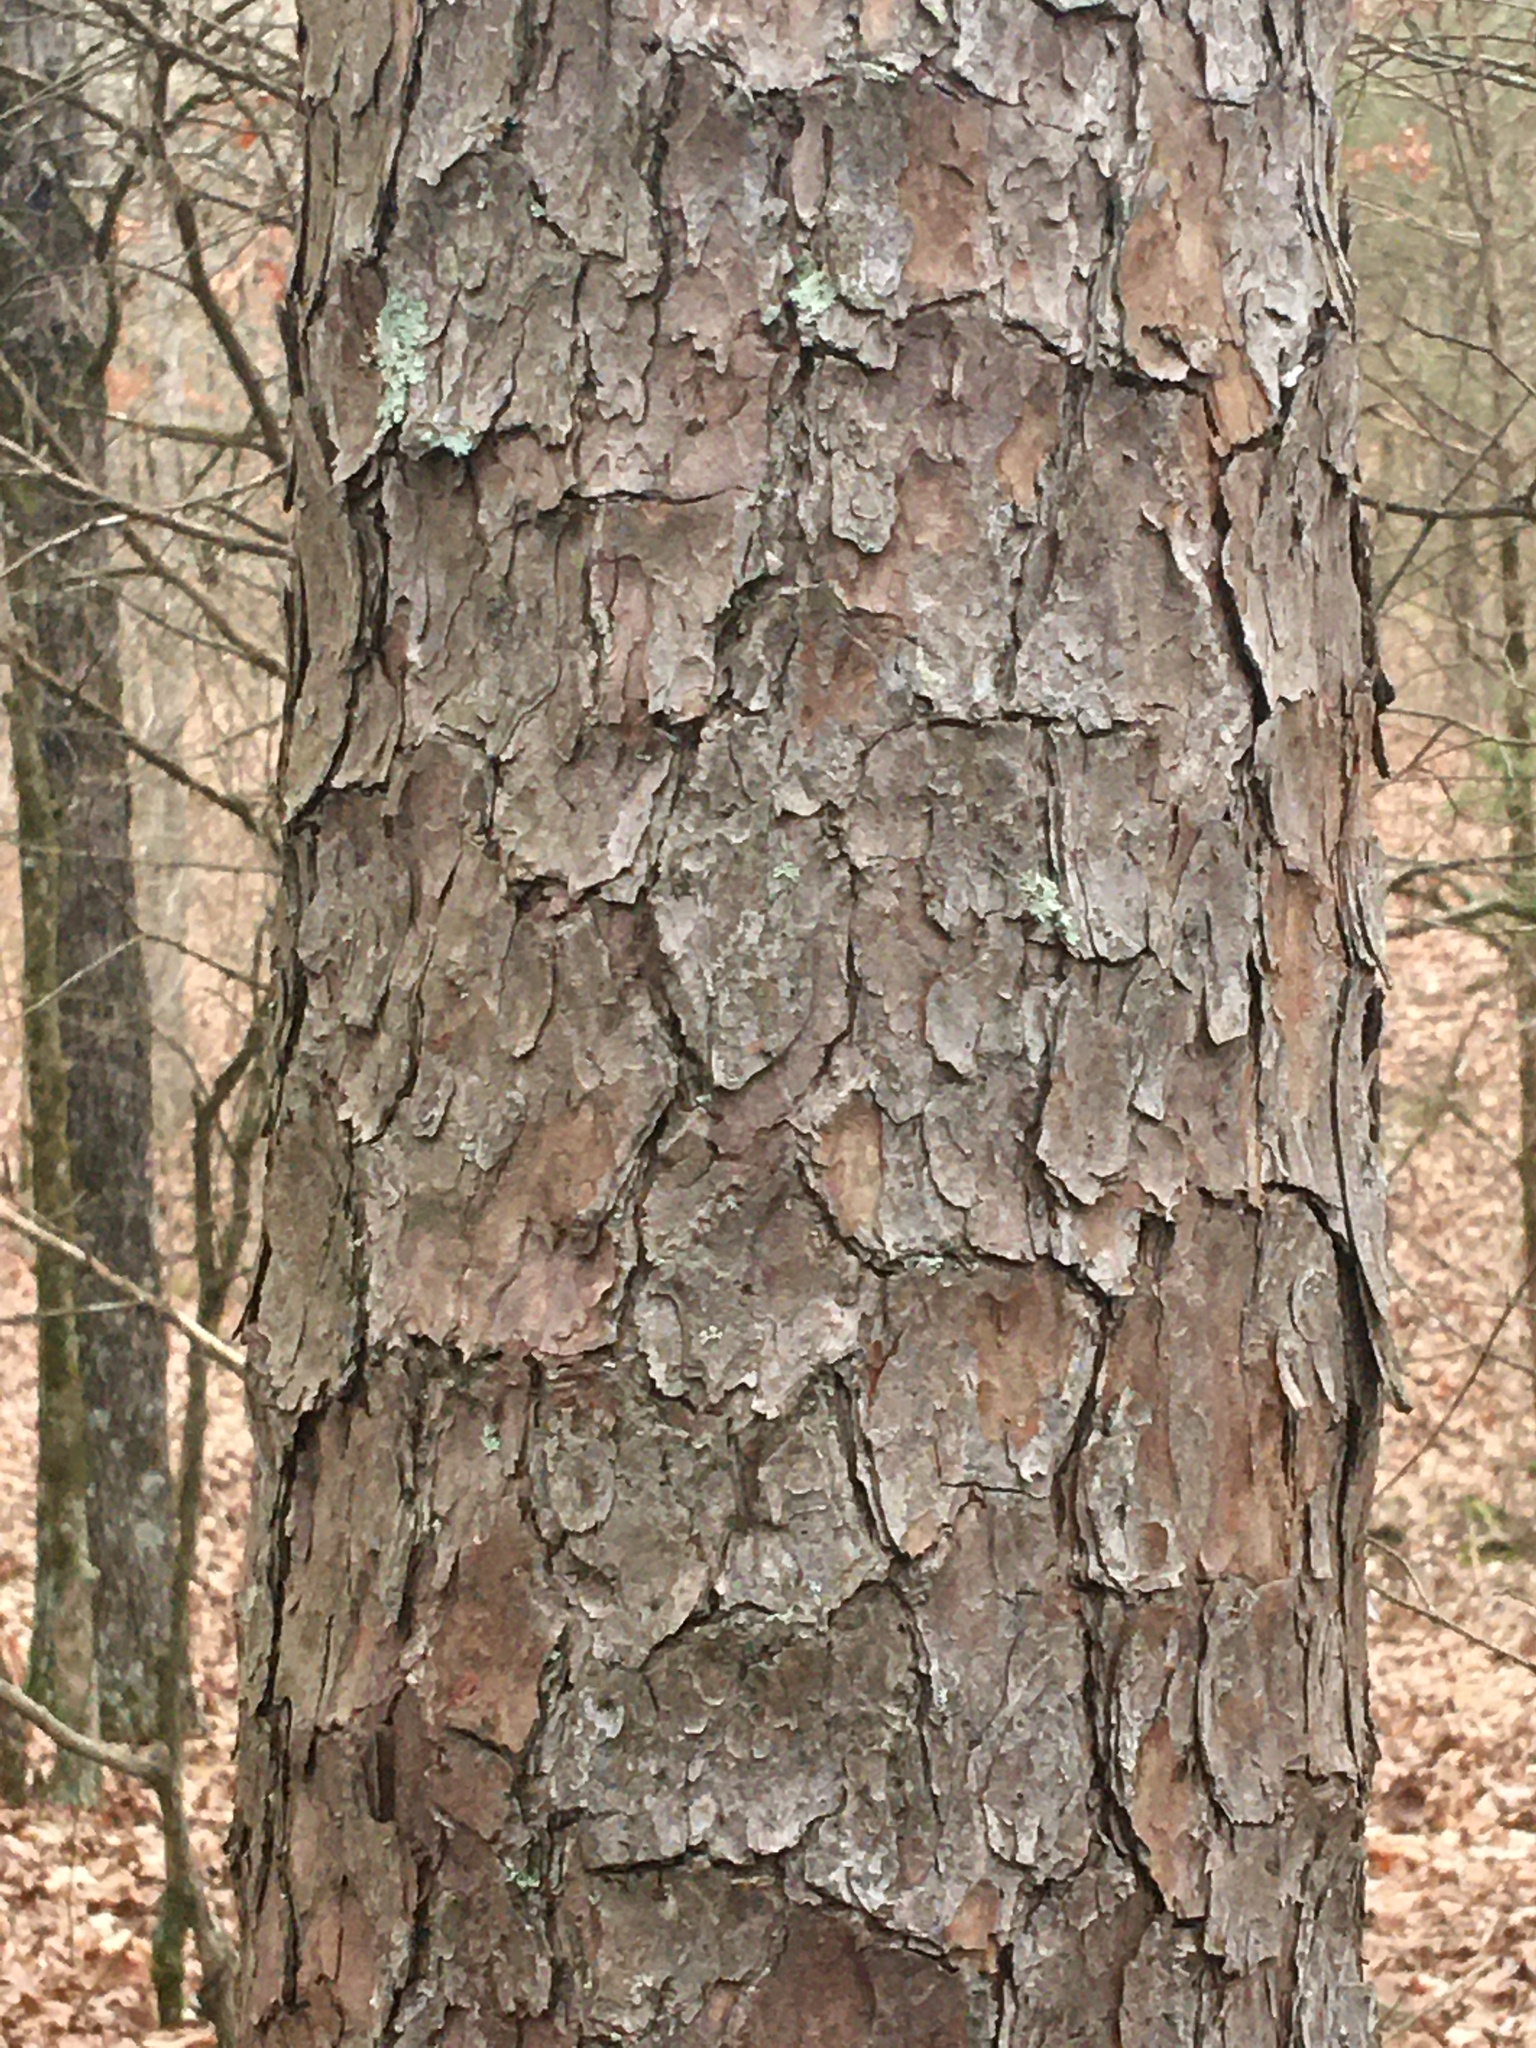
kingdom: Plantae
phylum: Tracheophyta
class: Pinopsida
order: Pinales
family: Pinaceae
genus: Pinus
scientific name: Pinus echinata
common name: Shortleaf pine
